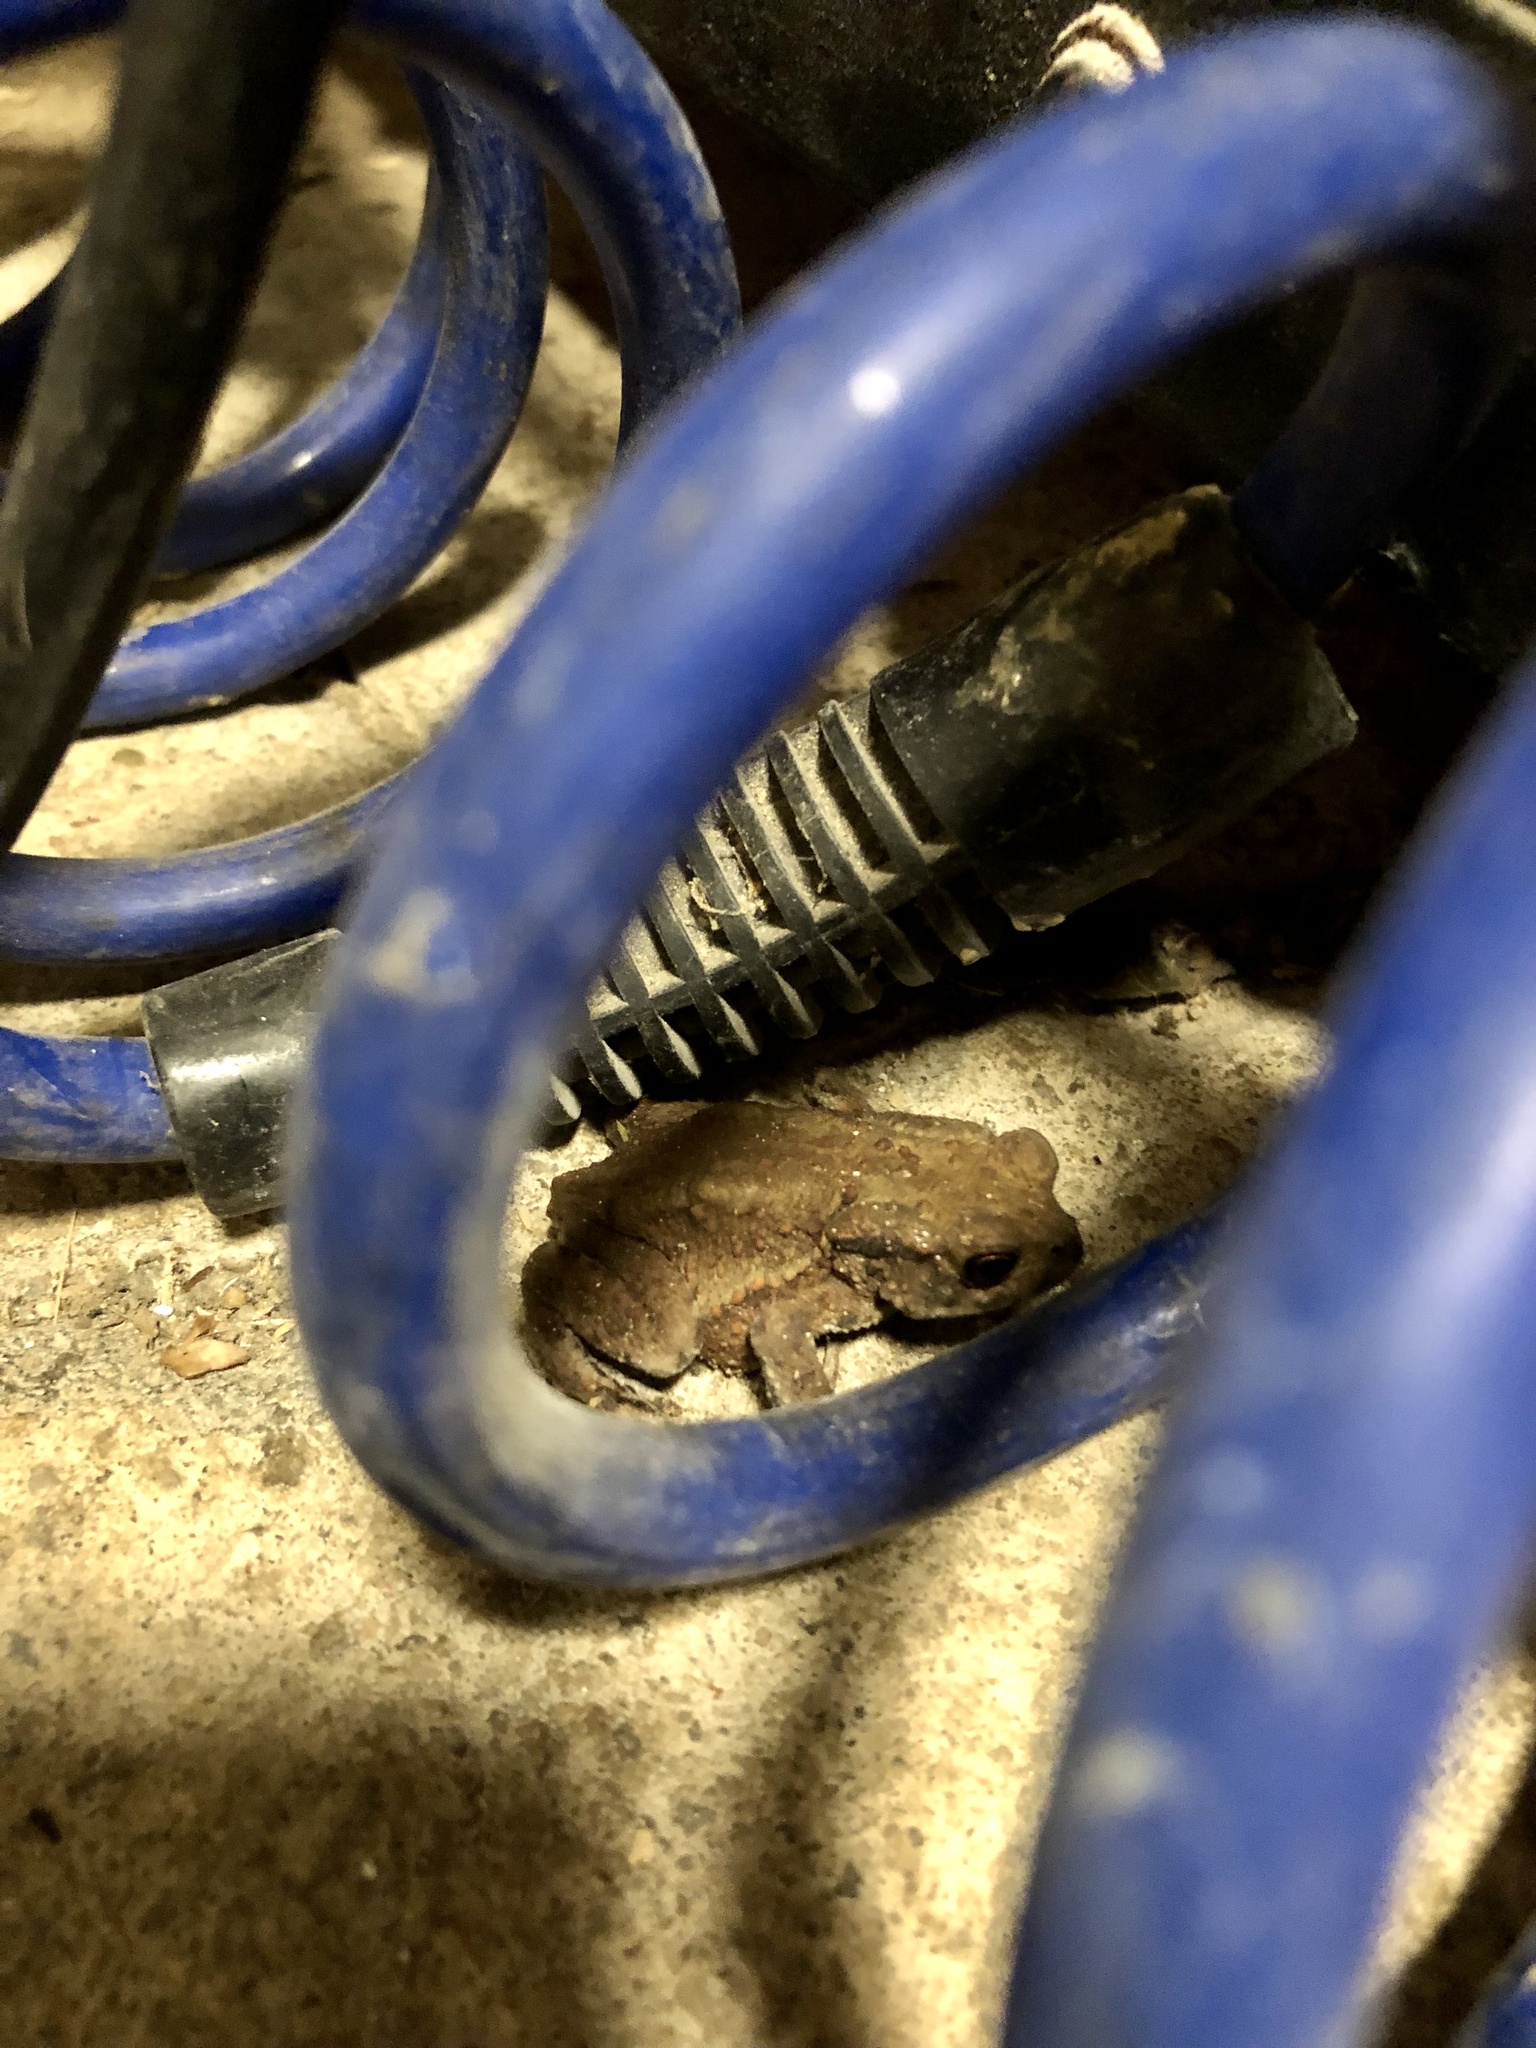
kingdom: Animalia
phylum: Chordata
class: Amphibia
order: Anura
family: Bufonidae
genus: Bufo
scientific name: Bufo bufo
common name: Common toad
